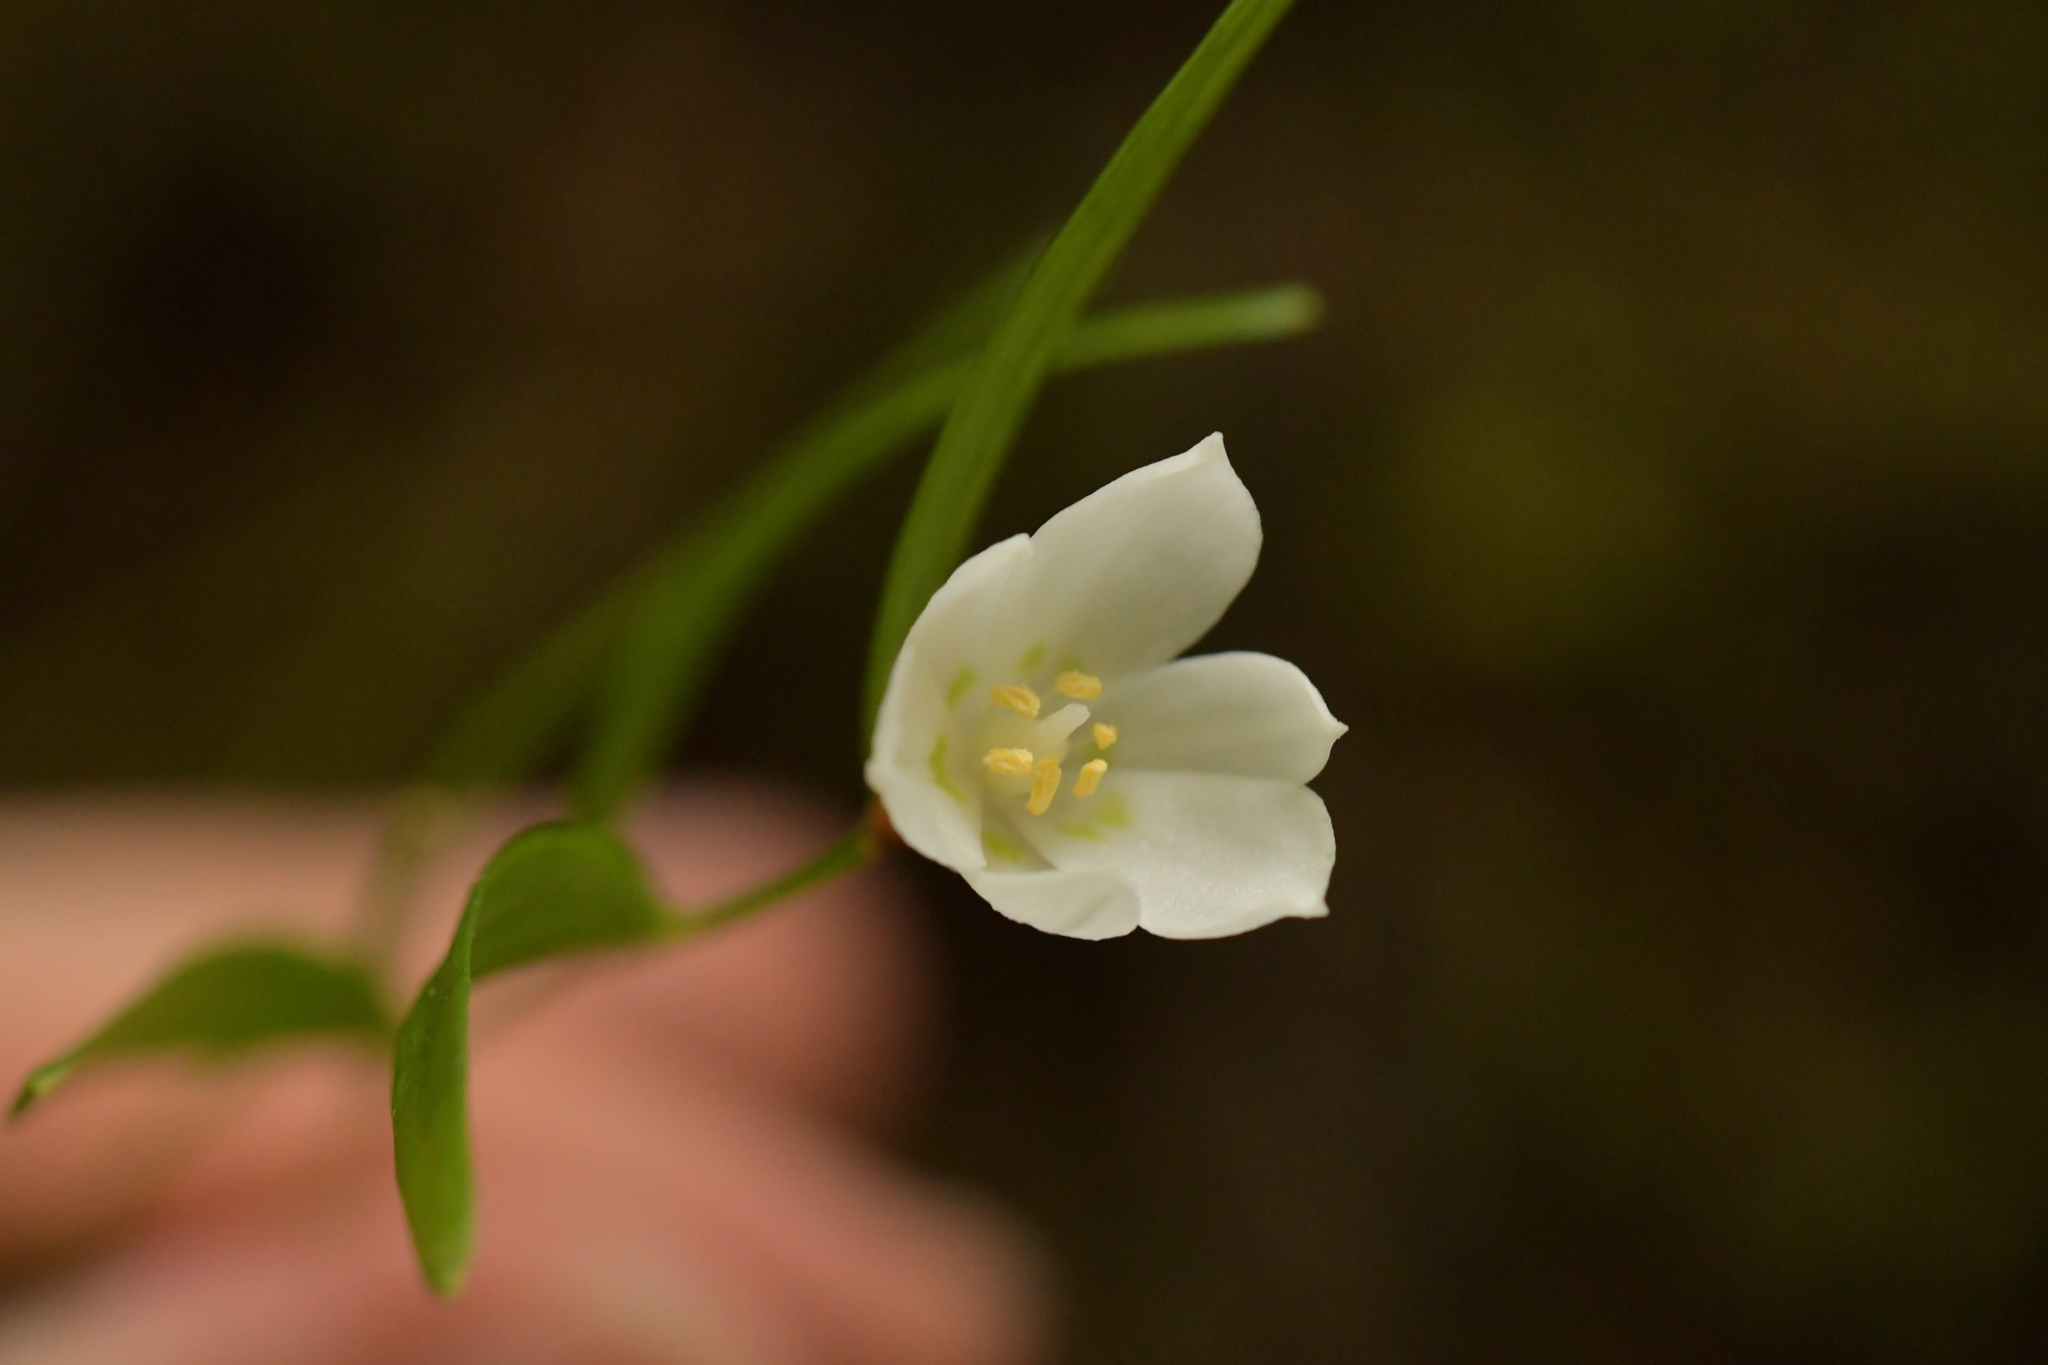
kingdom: Plantae
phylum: Tracheophyta
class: Liliopsida
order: Liliales
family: Alstroemeriaceae
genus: Luzuriaga
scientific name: Luzuriaga parviflora
